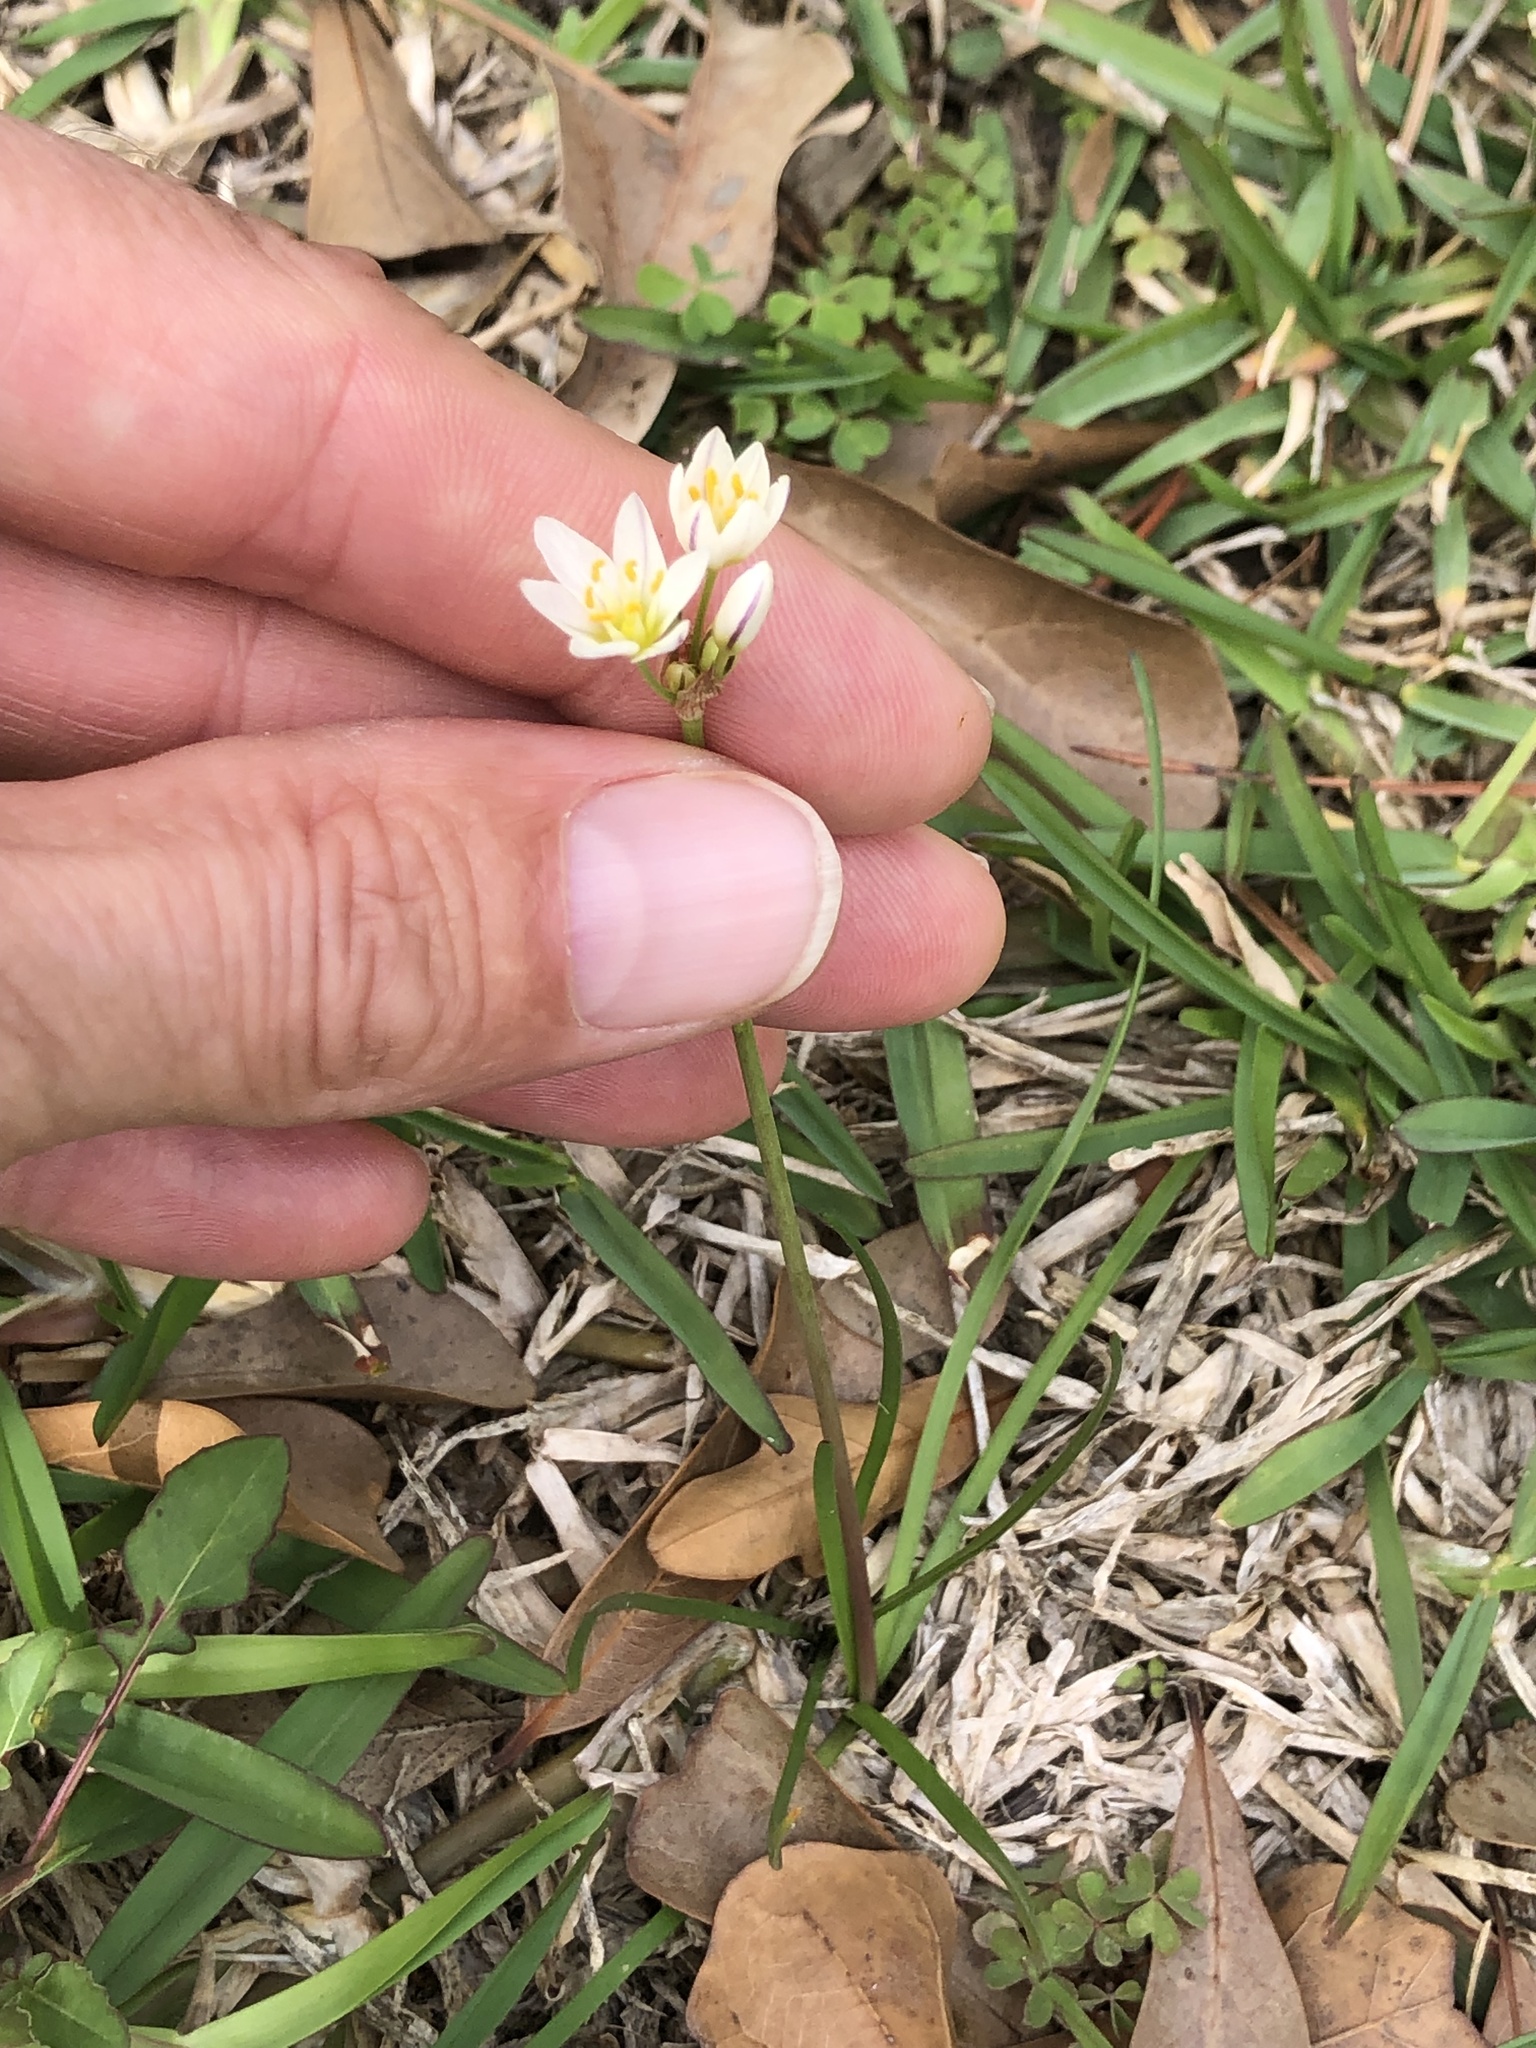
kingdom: Plantae
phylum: Tracheophyta
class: Liliopsida
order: Asparagales
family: Amaryllidaceae
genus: Nothoscordum
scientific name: Nothoscordum bivalve
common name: Crow-poison
